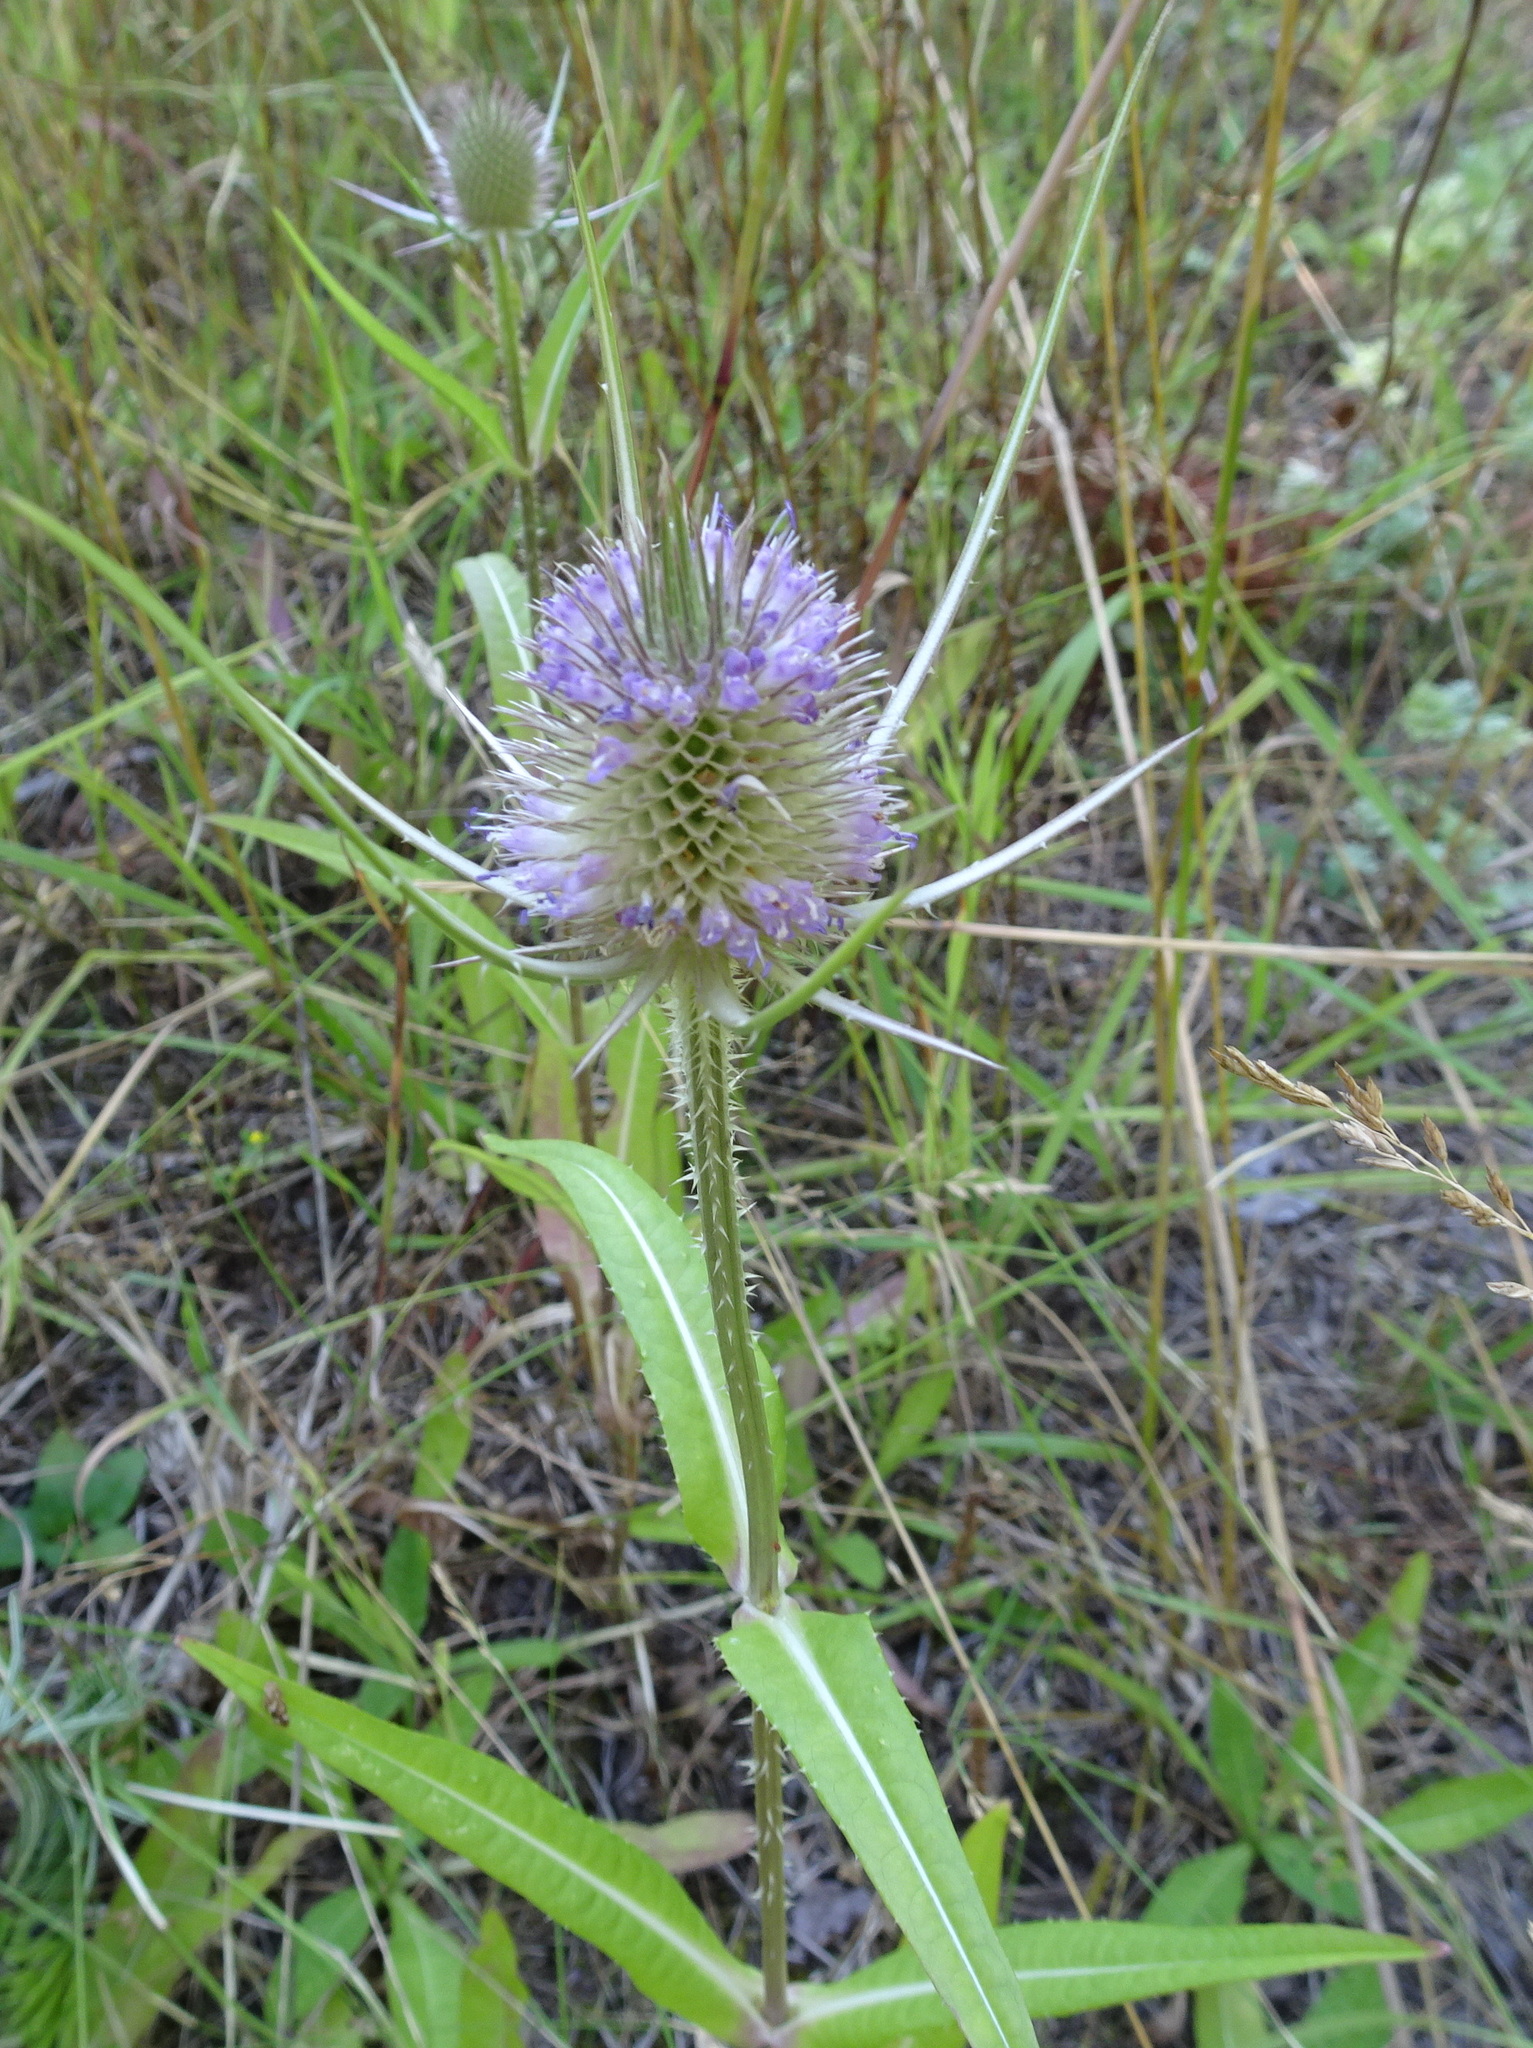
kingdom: Plantae
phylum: Tracheophyta
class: Magnoliopsida
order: Dipsacales
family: Caprifoliaceae
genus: Dipsacus
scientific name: Dipsacus fullonum
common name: Teasel
